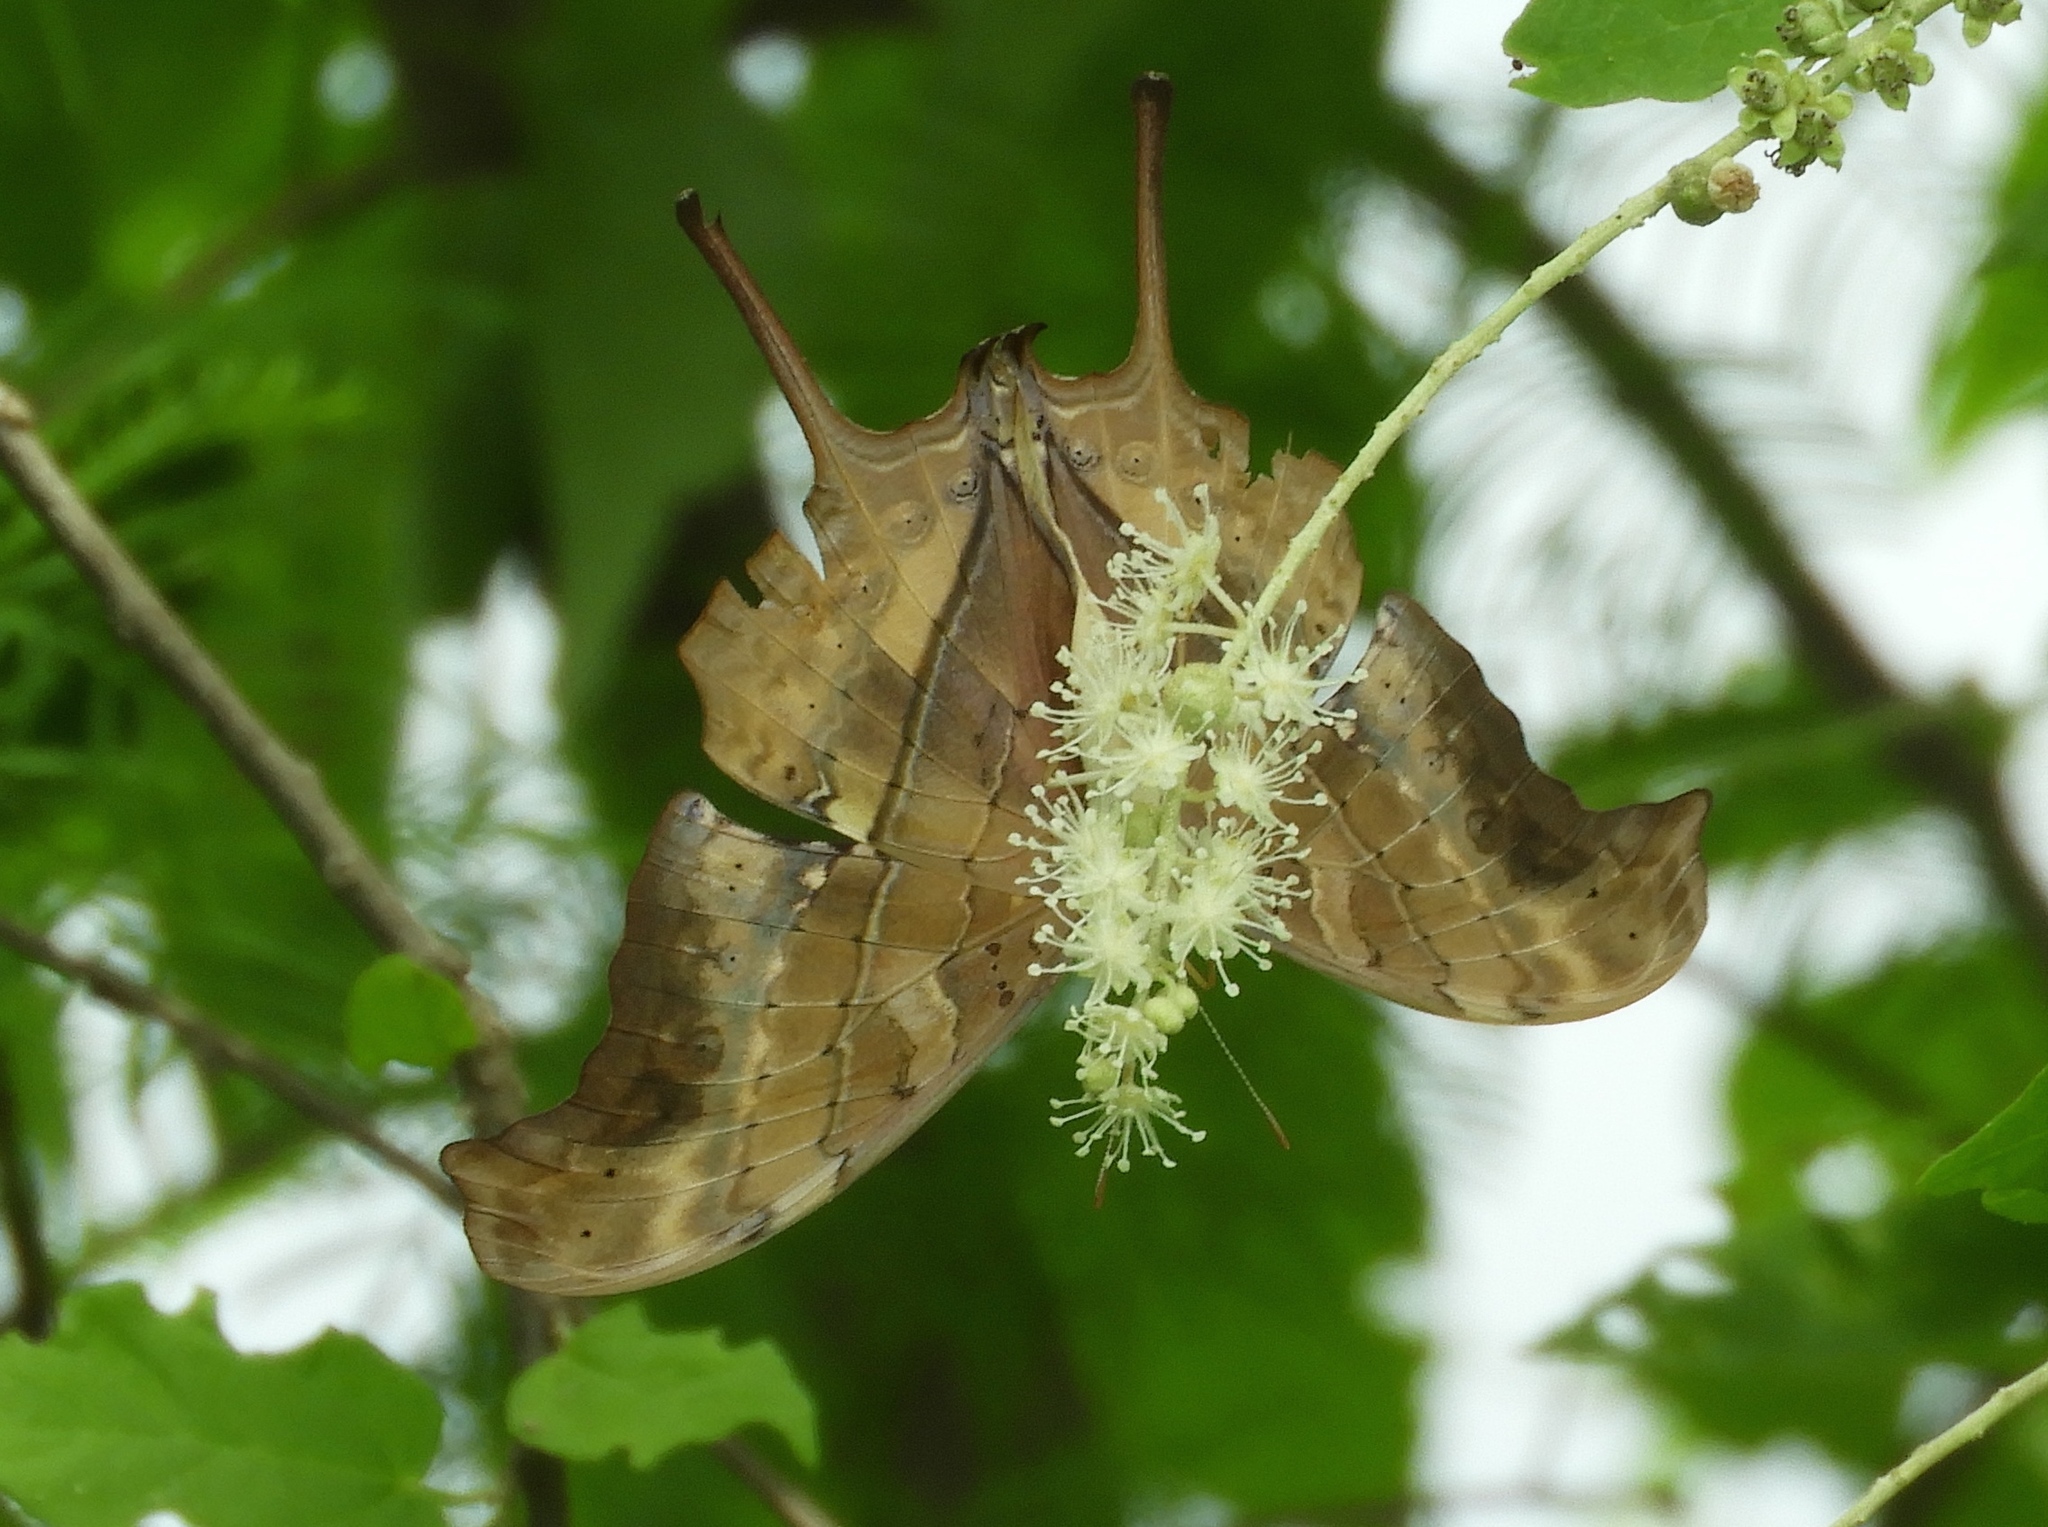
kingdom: Animalia
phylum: Arthropoda
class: Insecta
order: Lepidoptera
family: Nymphalidae
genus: Marpesia
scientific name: Marpesia petreus
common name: Red dagger wing
